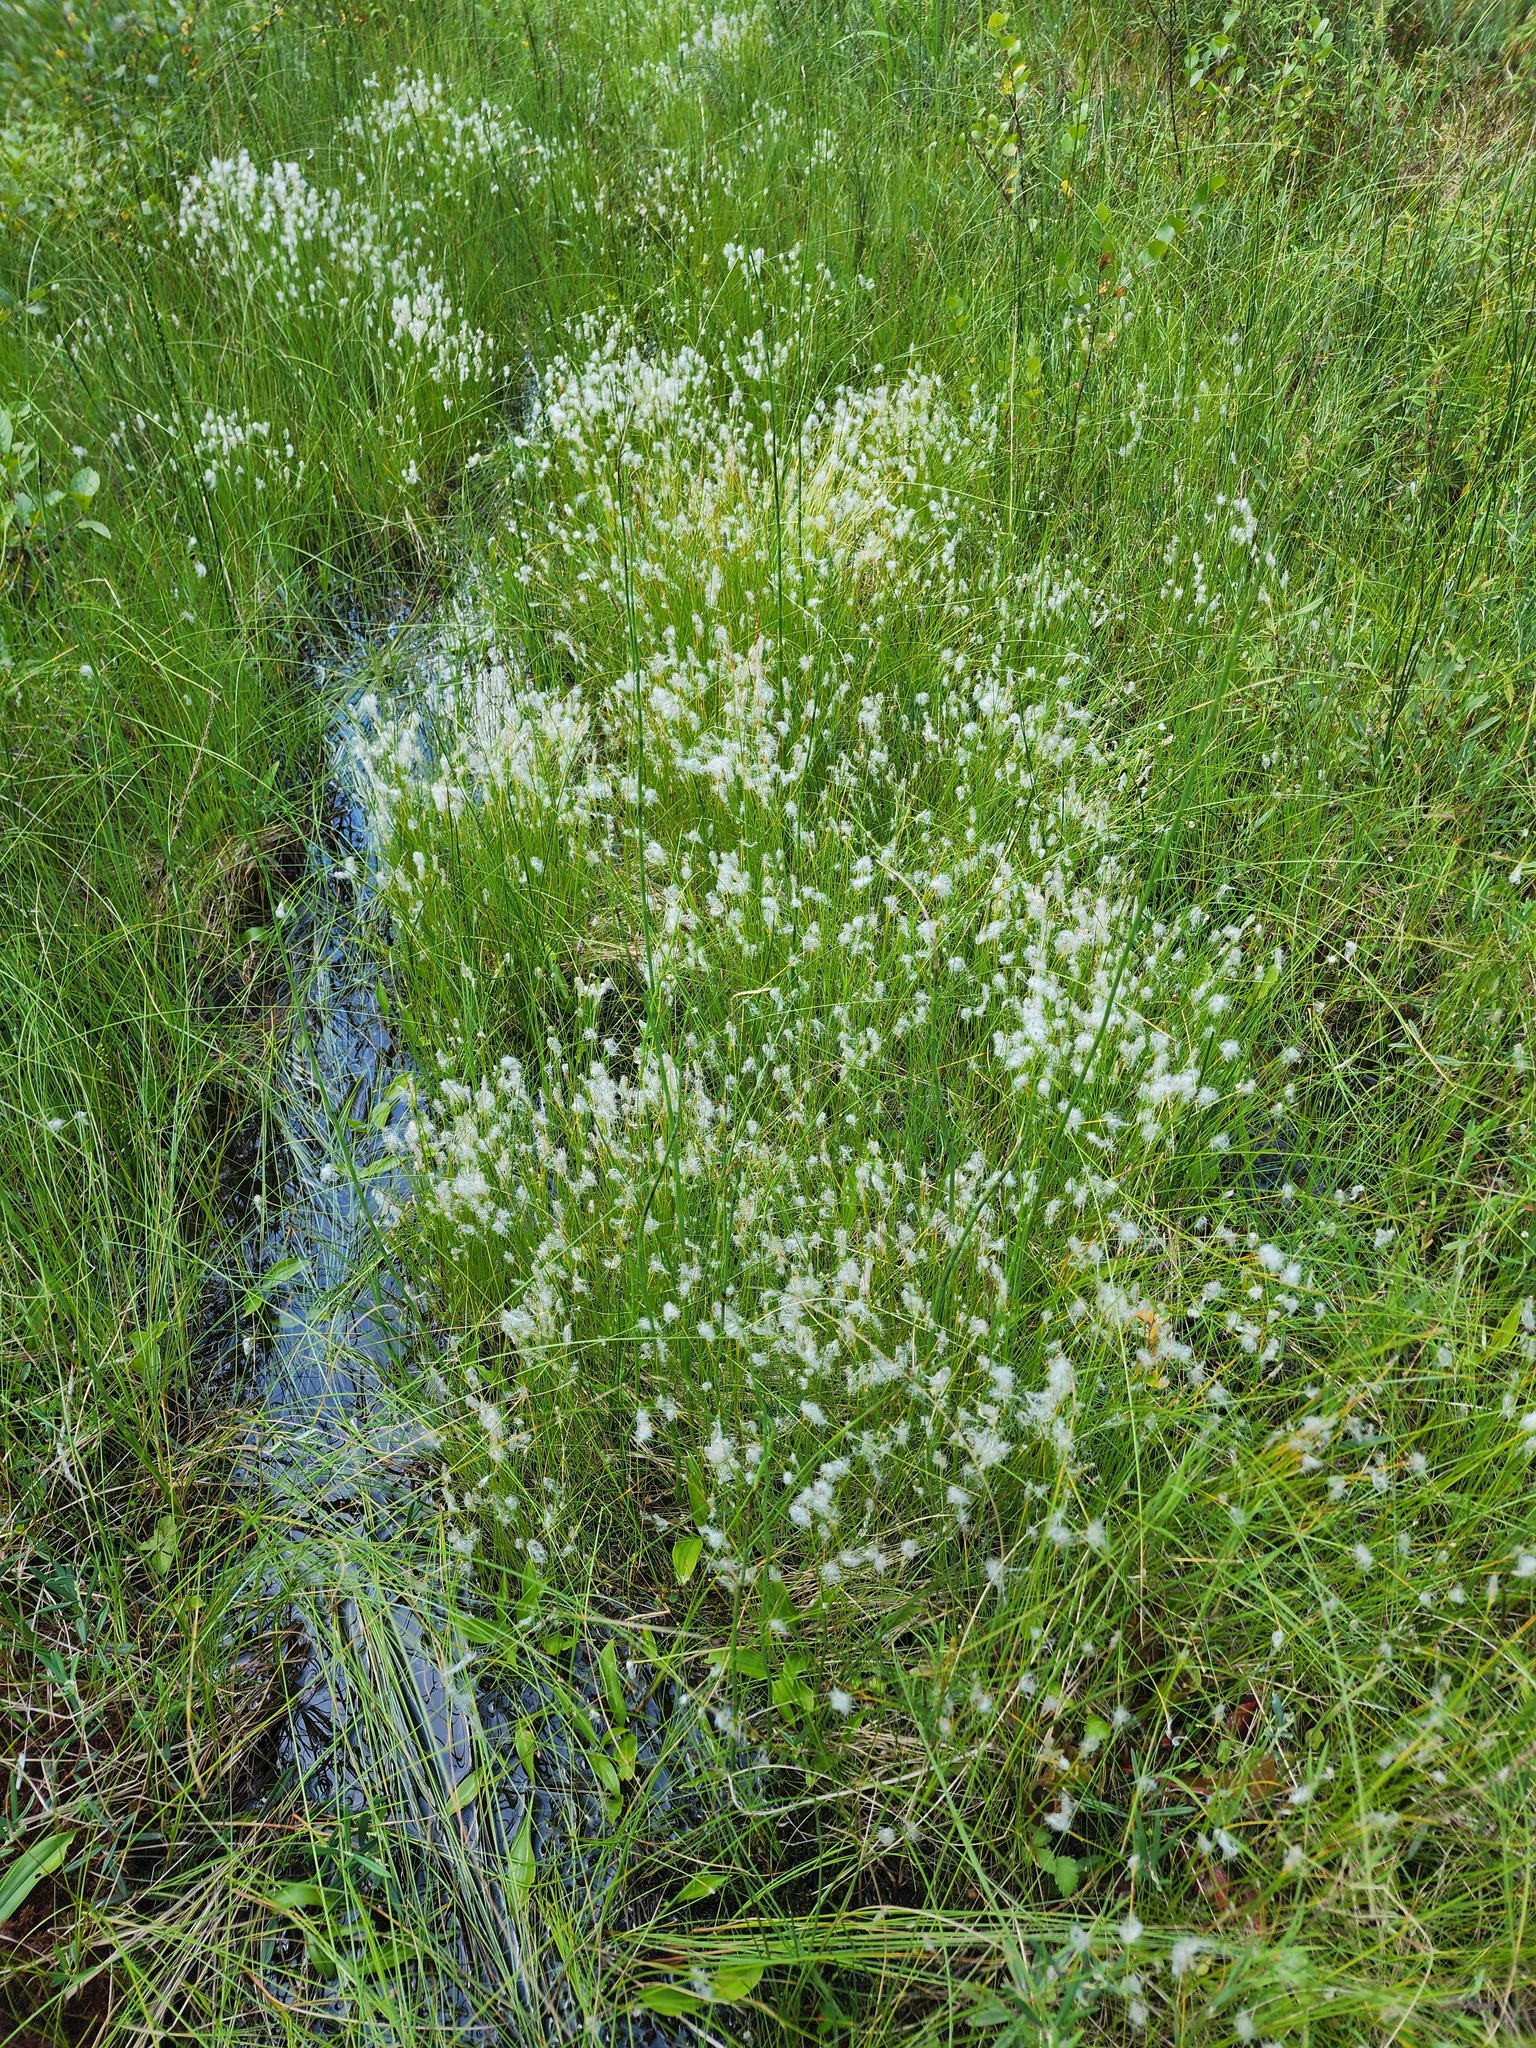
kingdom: Plantae
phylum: Tracheophyta
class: Liliopsida
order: Poales
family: Cyperaceae
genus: Trichophorum
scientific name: Trichophorum alpinum
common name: Alpine bulrush
